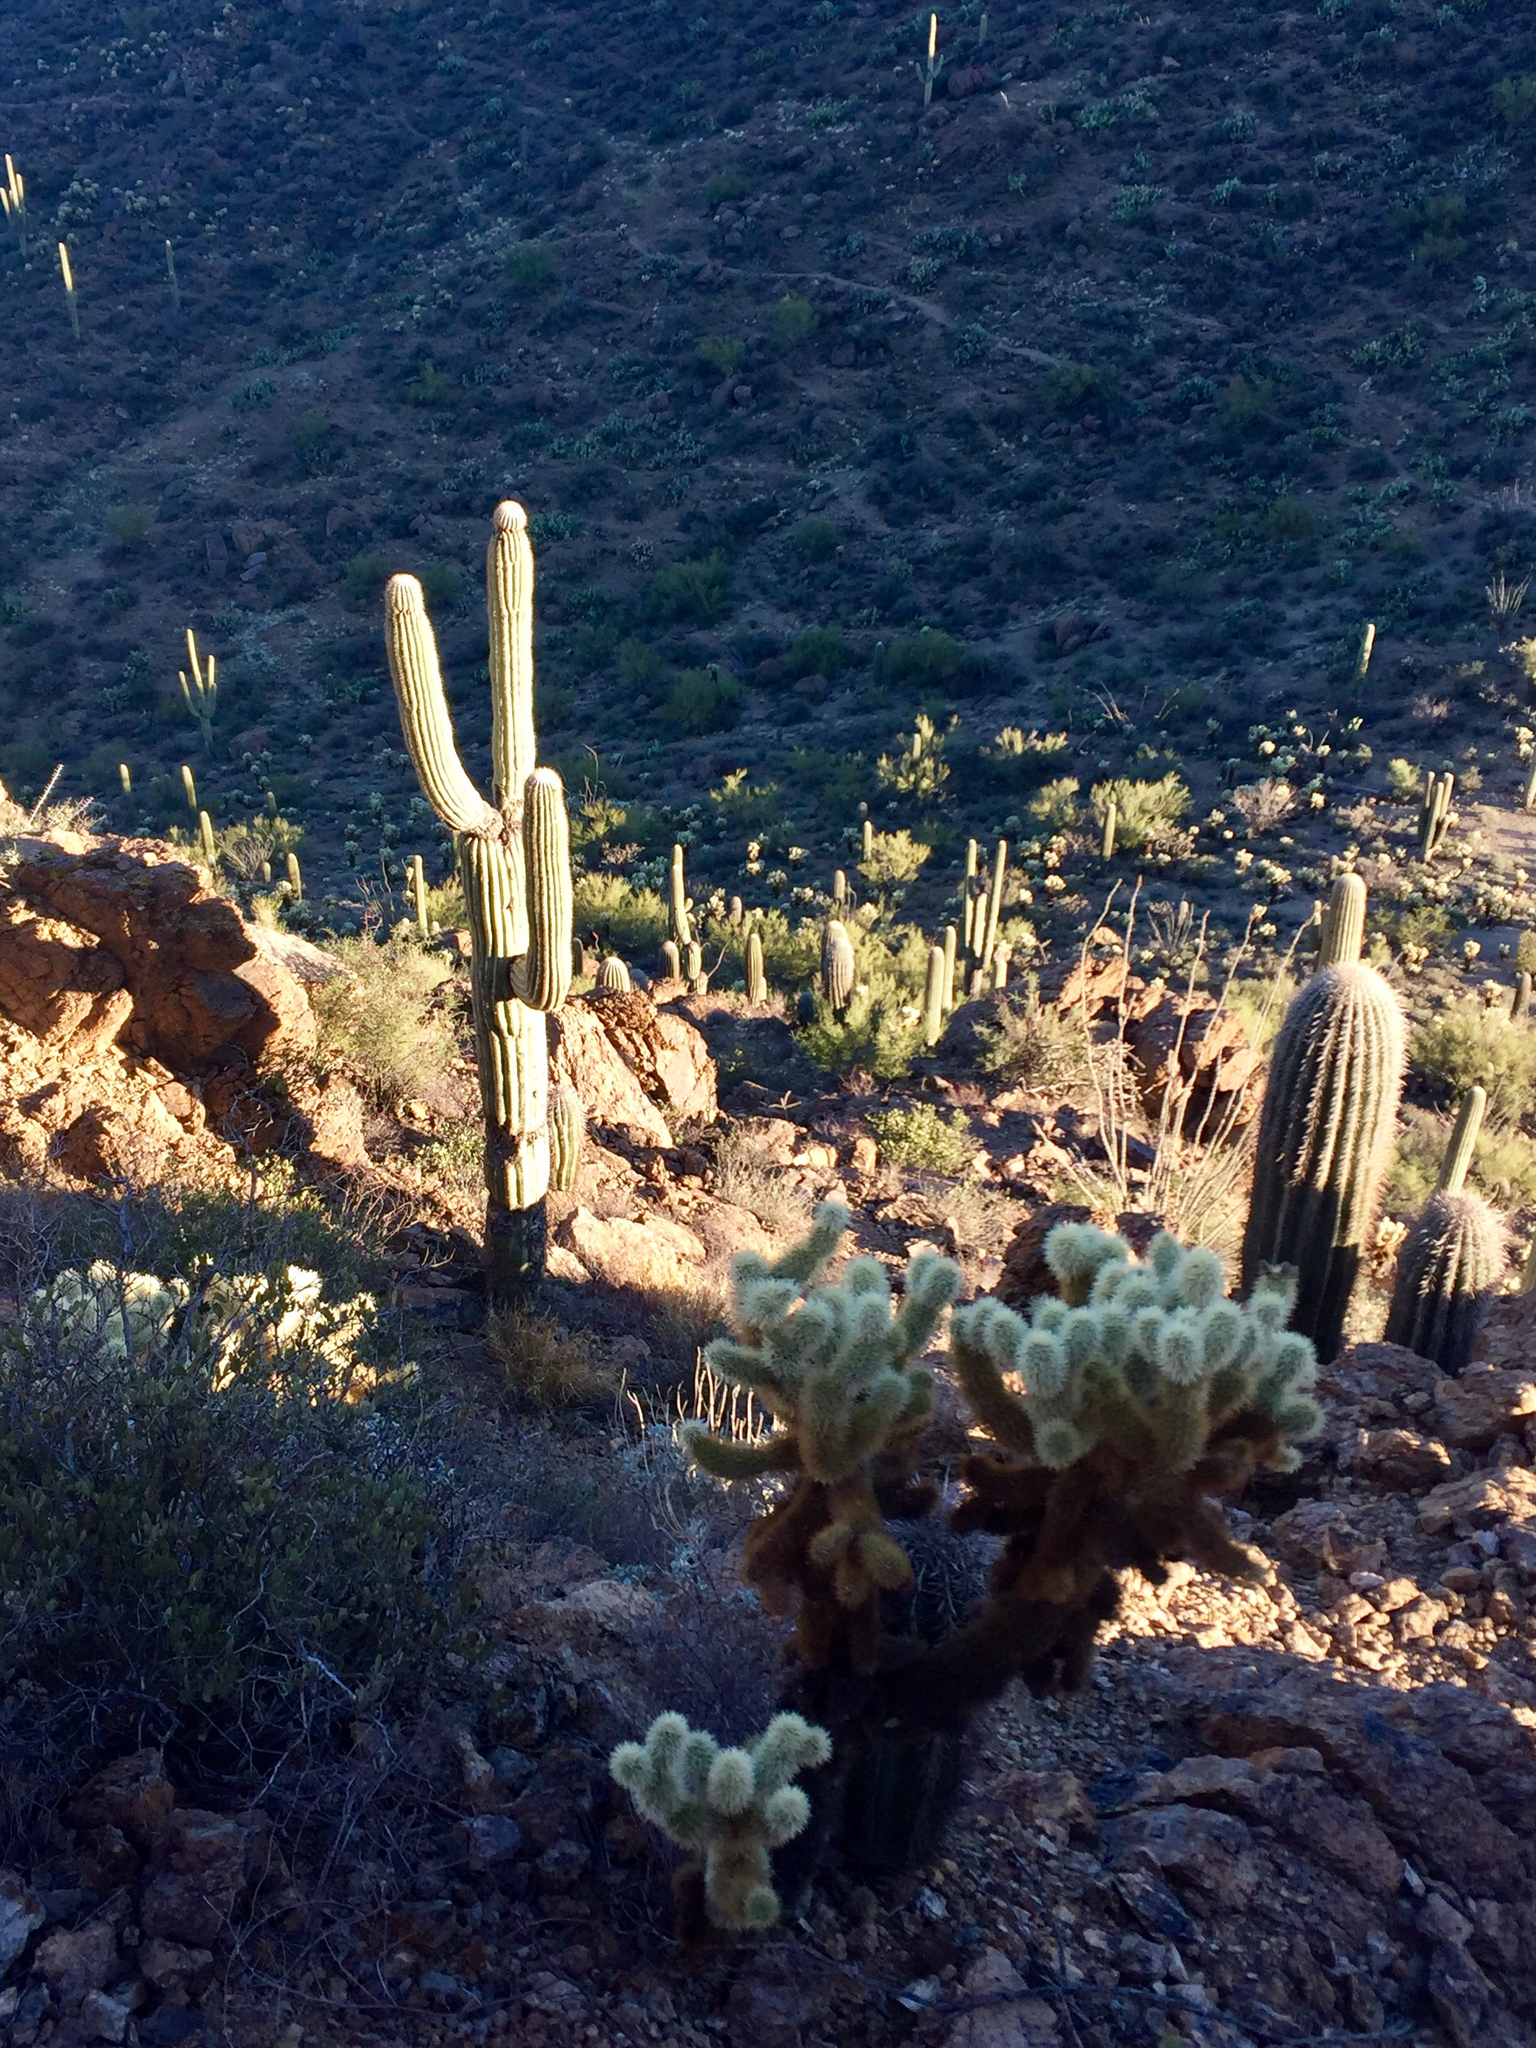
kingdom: Plantae
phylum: Tracheophyta
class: Magnoliopsida
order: Caryophyllales
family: Cactaceae
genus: Carnegiea
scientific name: Carnegiea gigantea
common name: Saguaro
